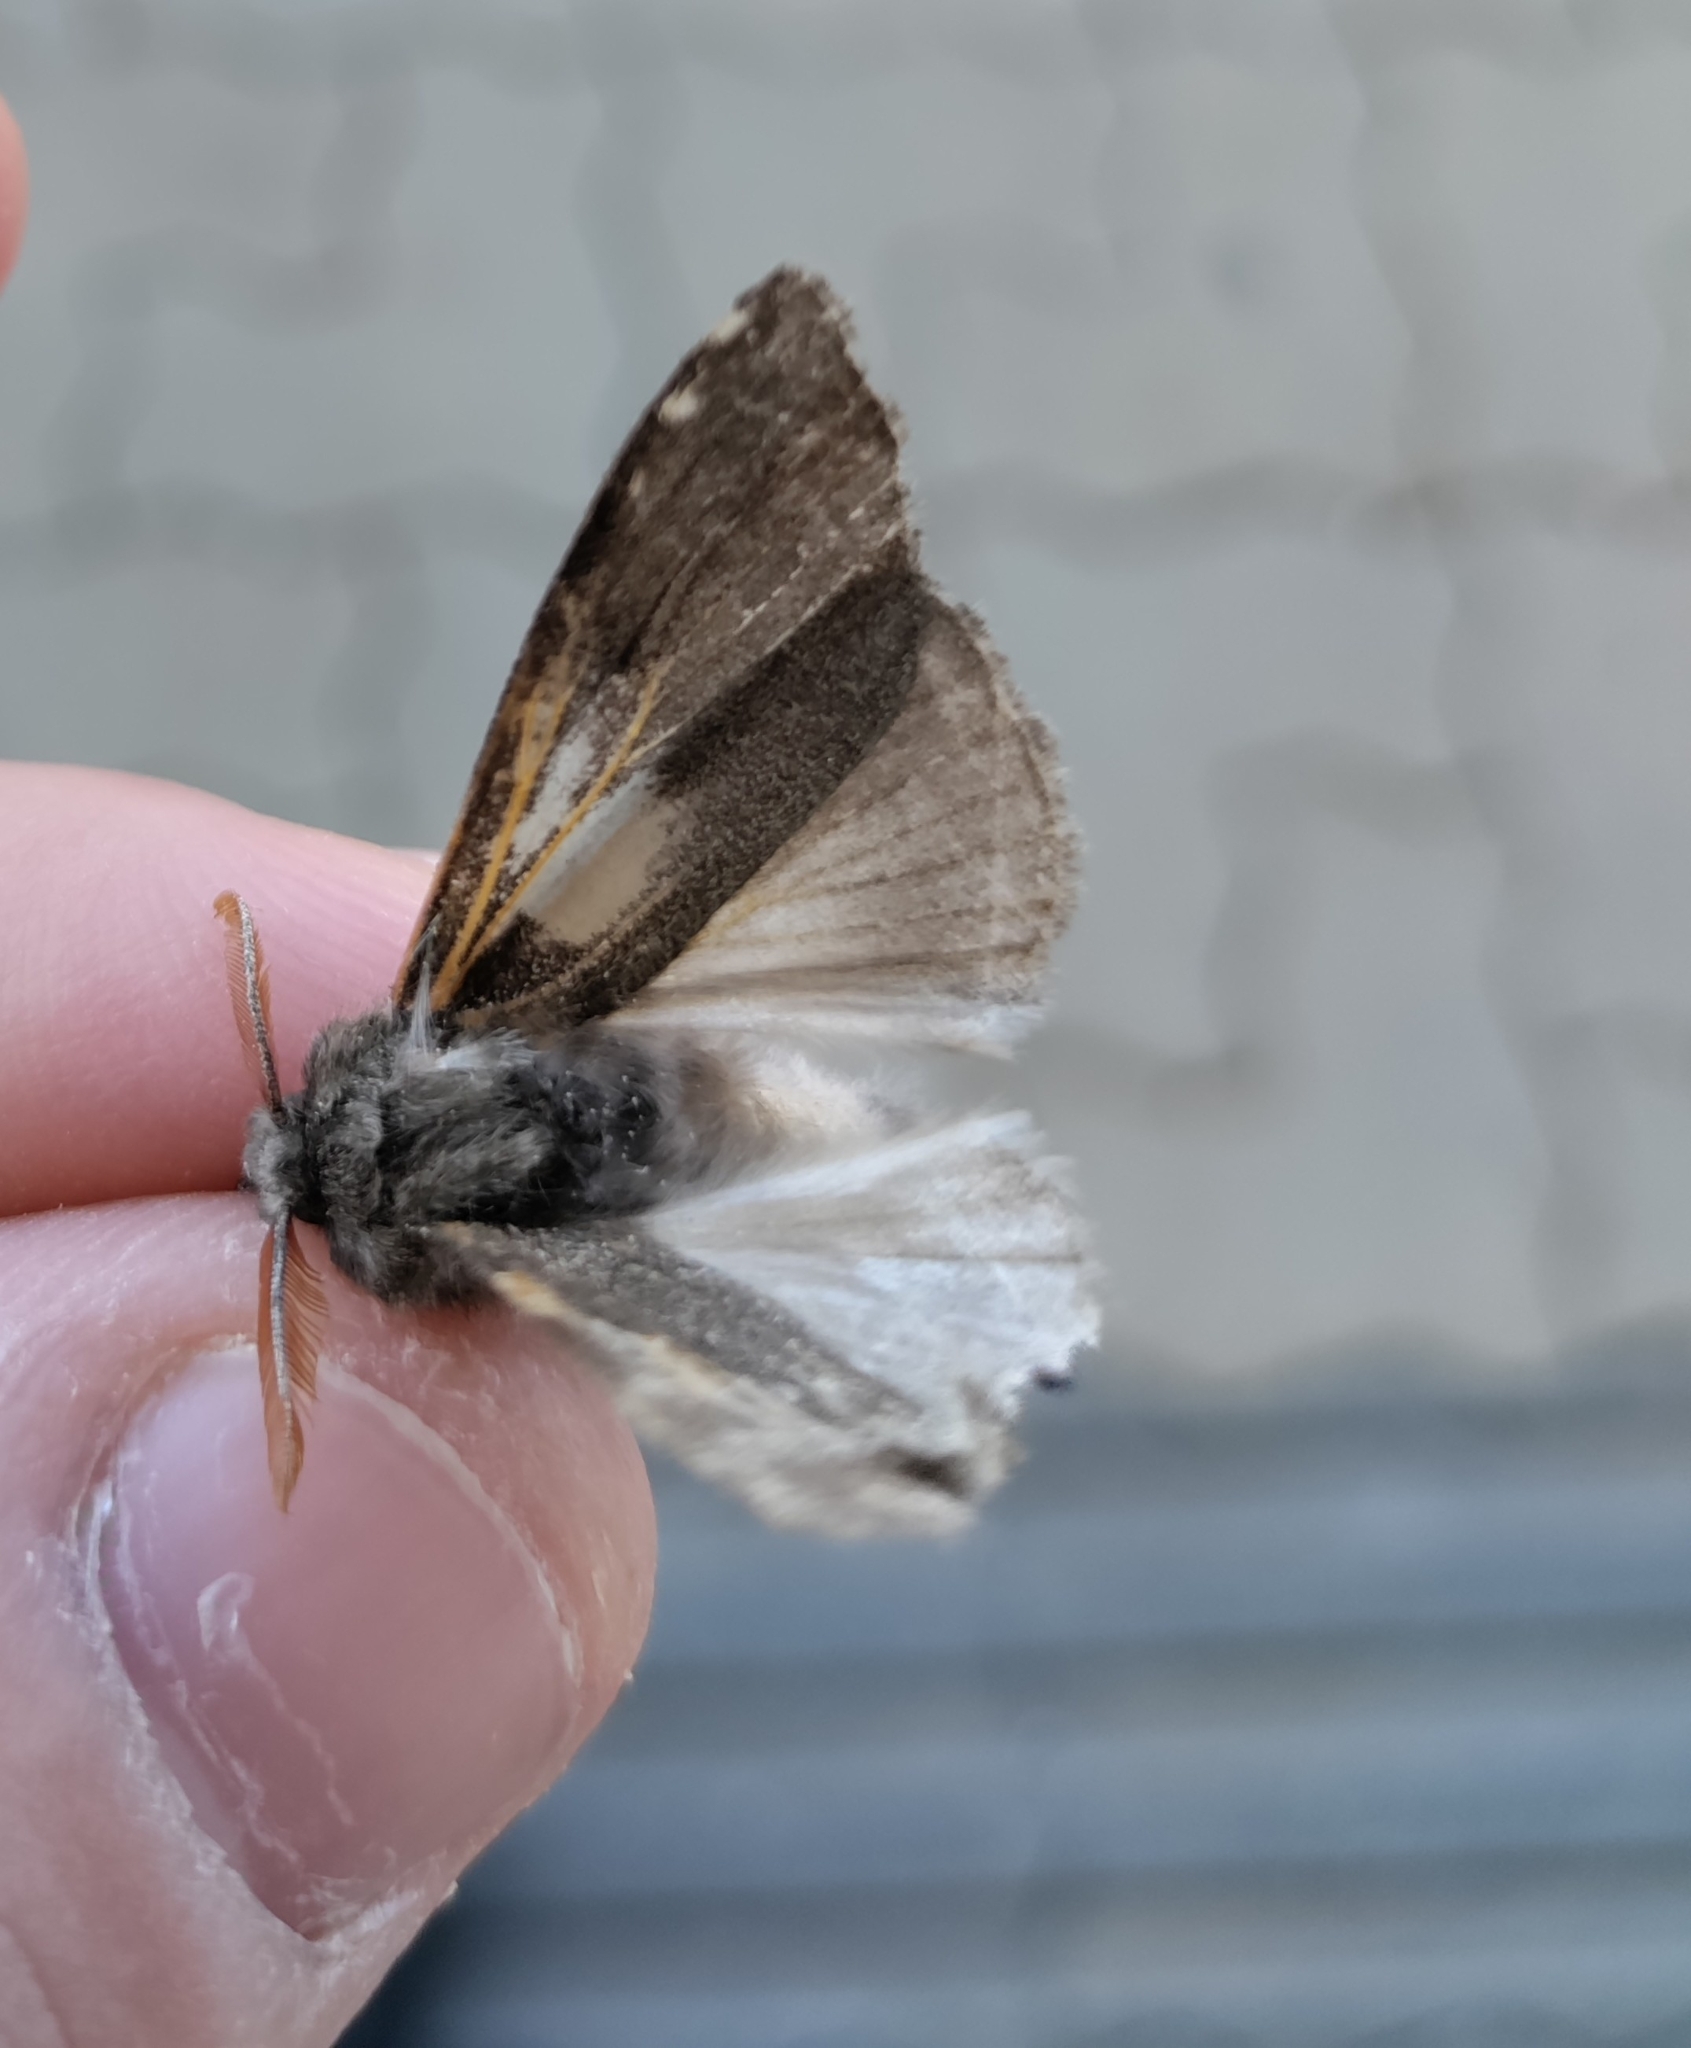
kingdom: Animalia
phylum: Arthropoda
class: Insecta
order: Lepidoptera
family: Erebidae
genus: Calliteara
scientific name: Calliteara pudibunda
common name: Pale tussock
